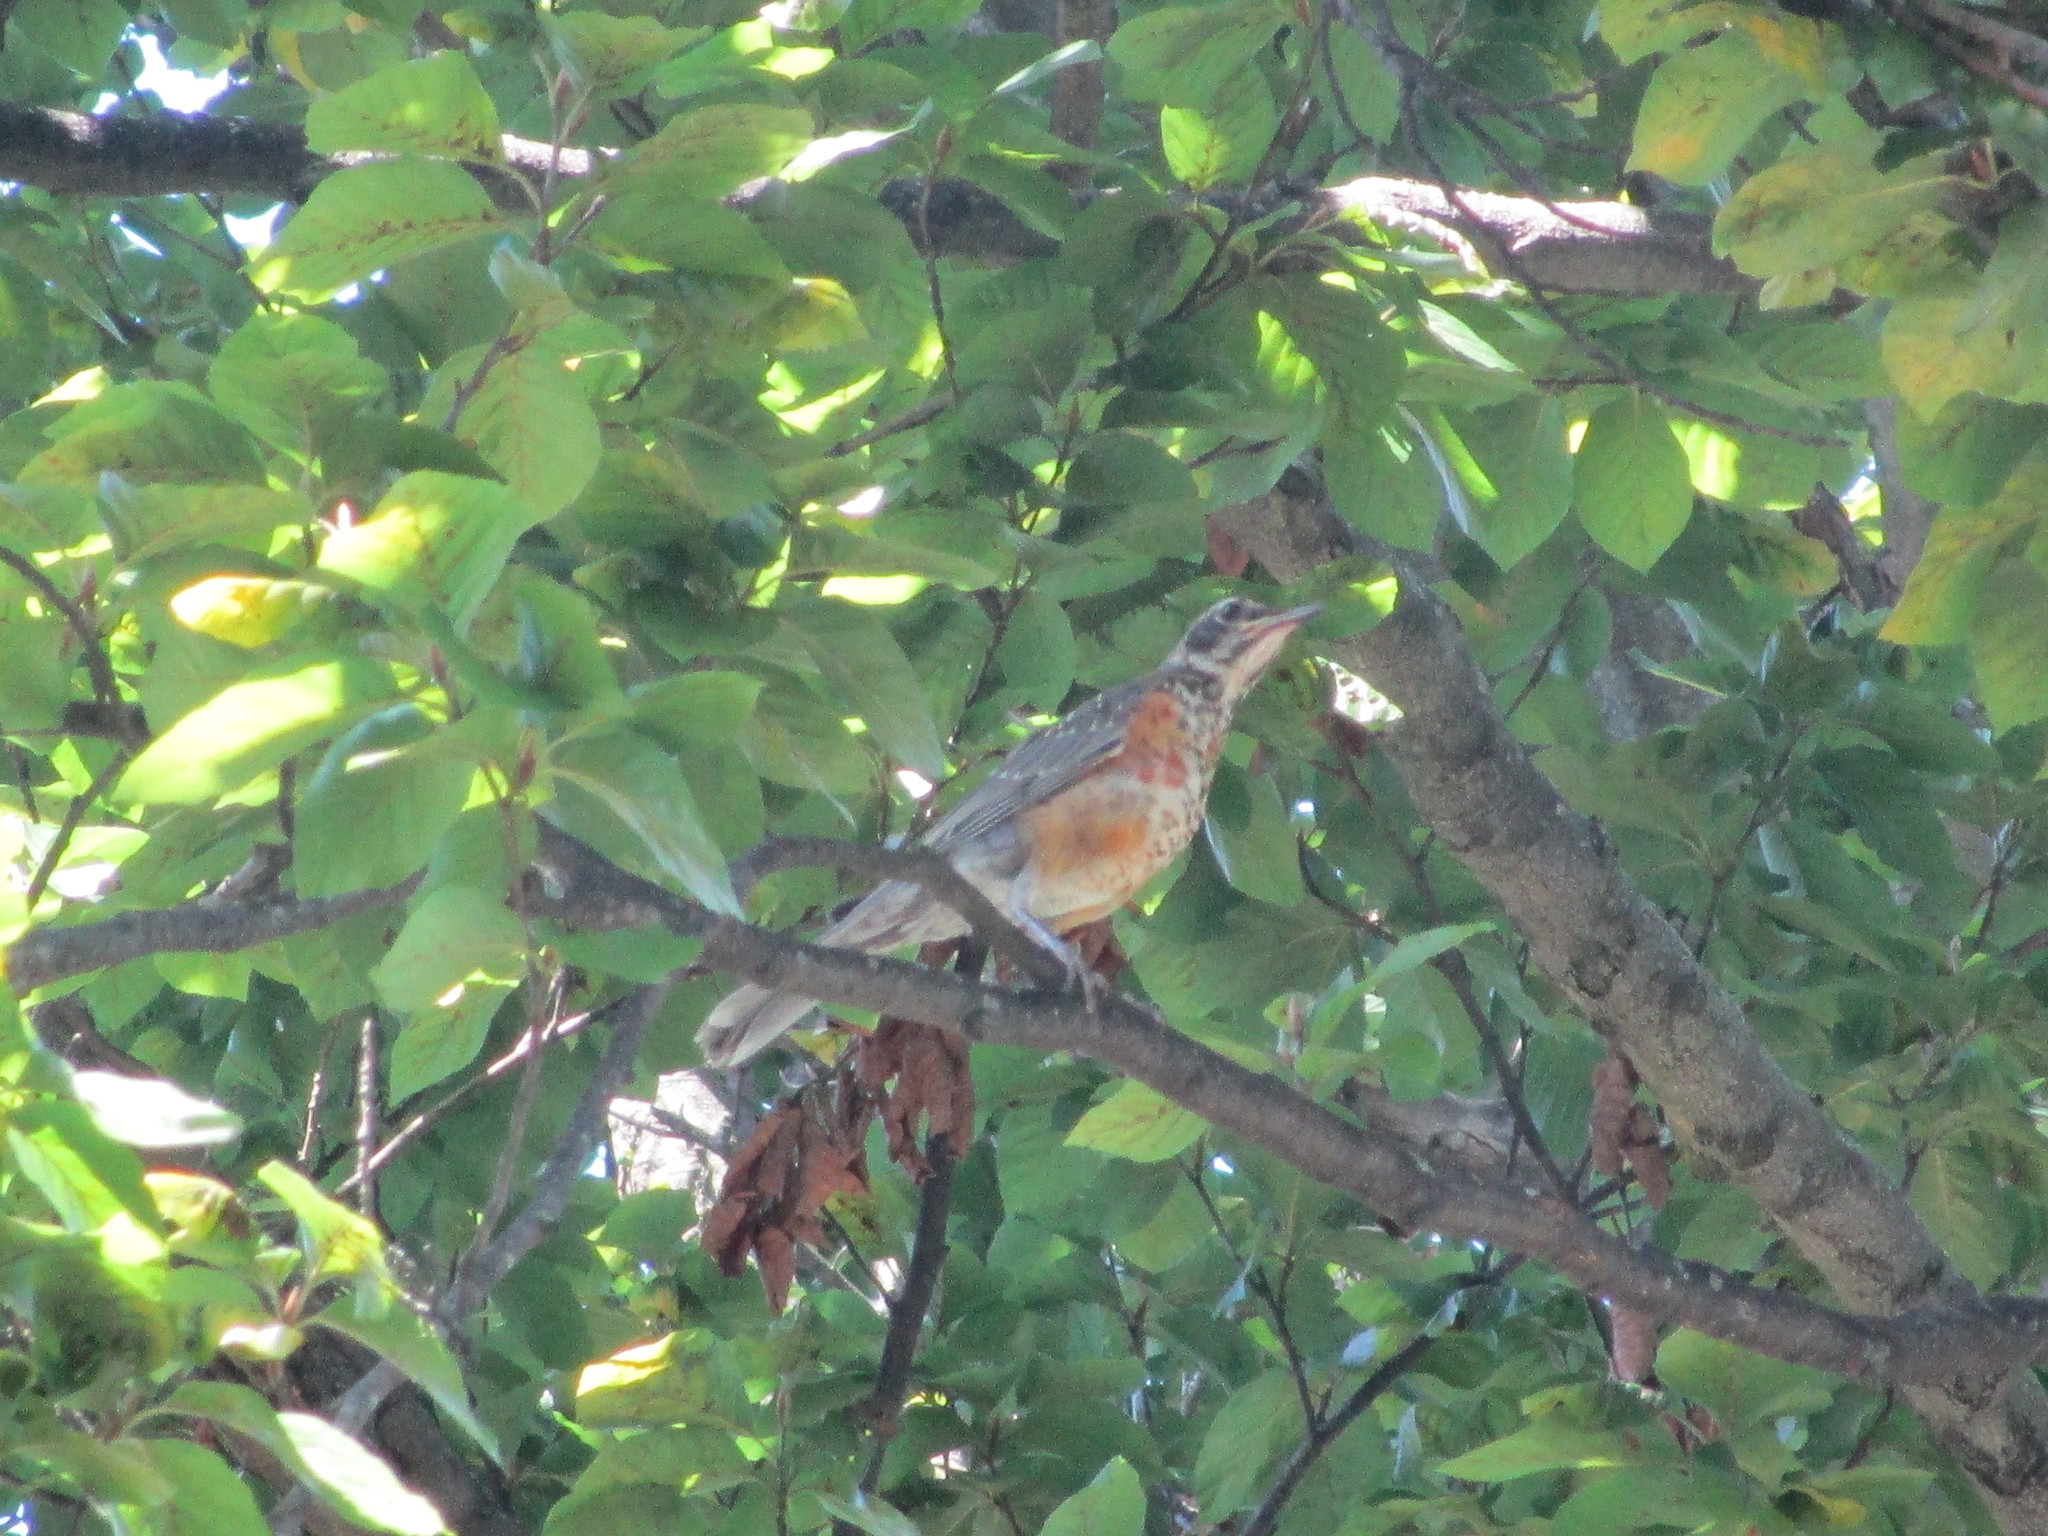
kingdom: Animalia
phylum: Chordata
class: Aves
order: Passeriformes
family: Turdidae
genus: Turdus
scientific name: Turdus migratorius
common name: American robin
